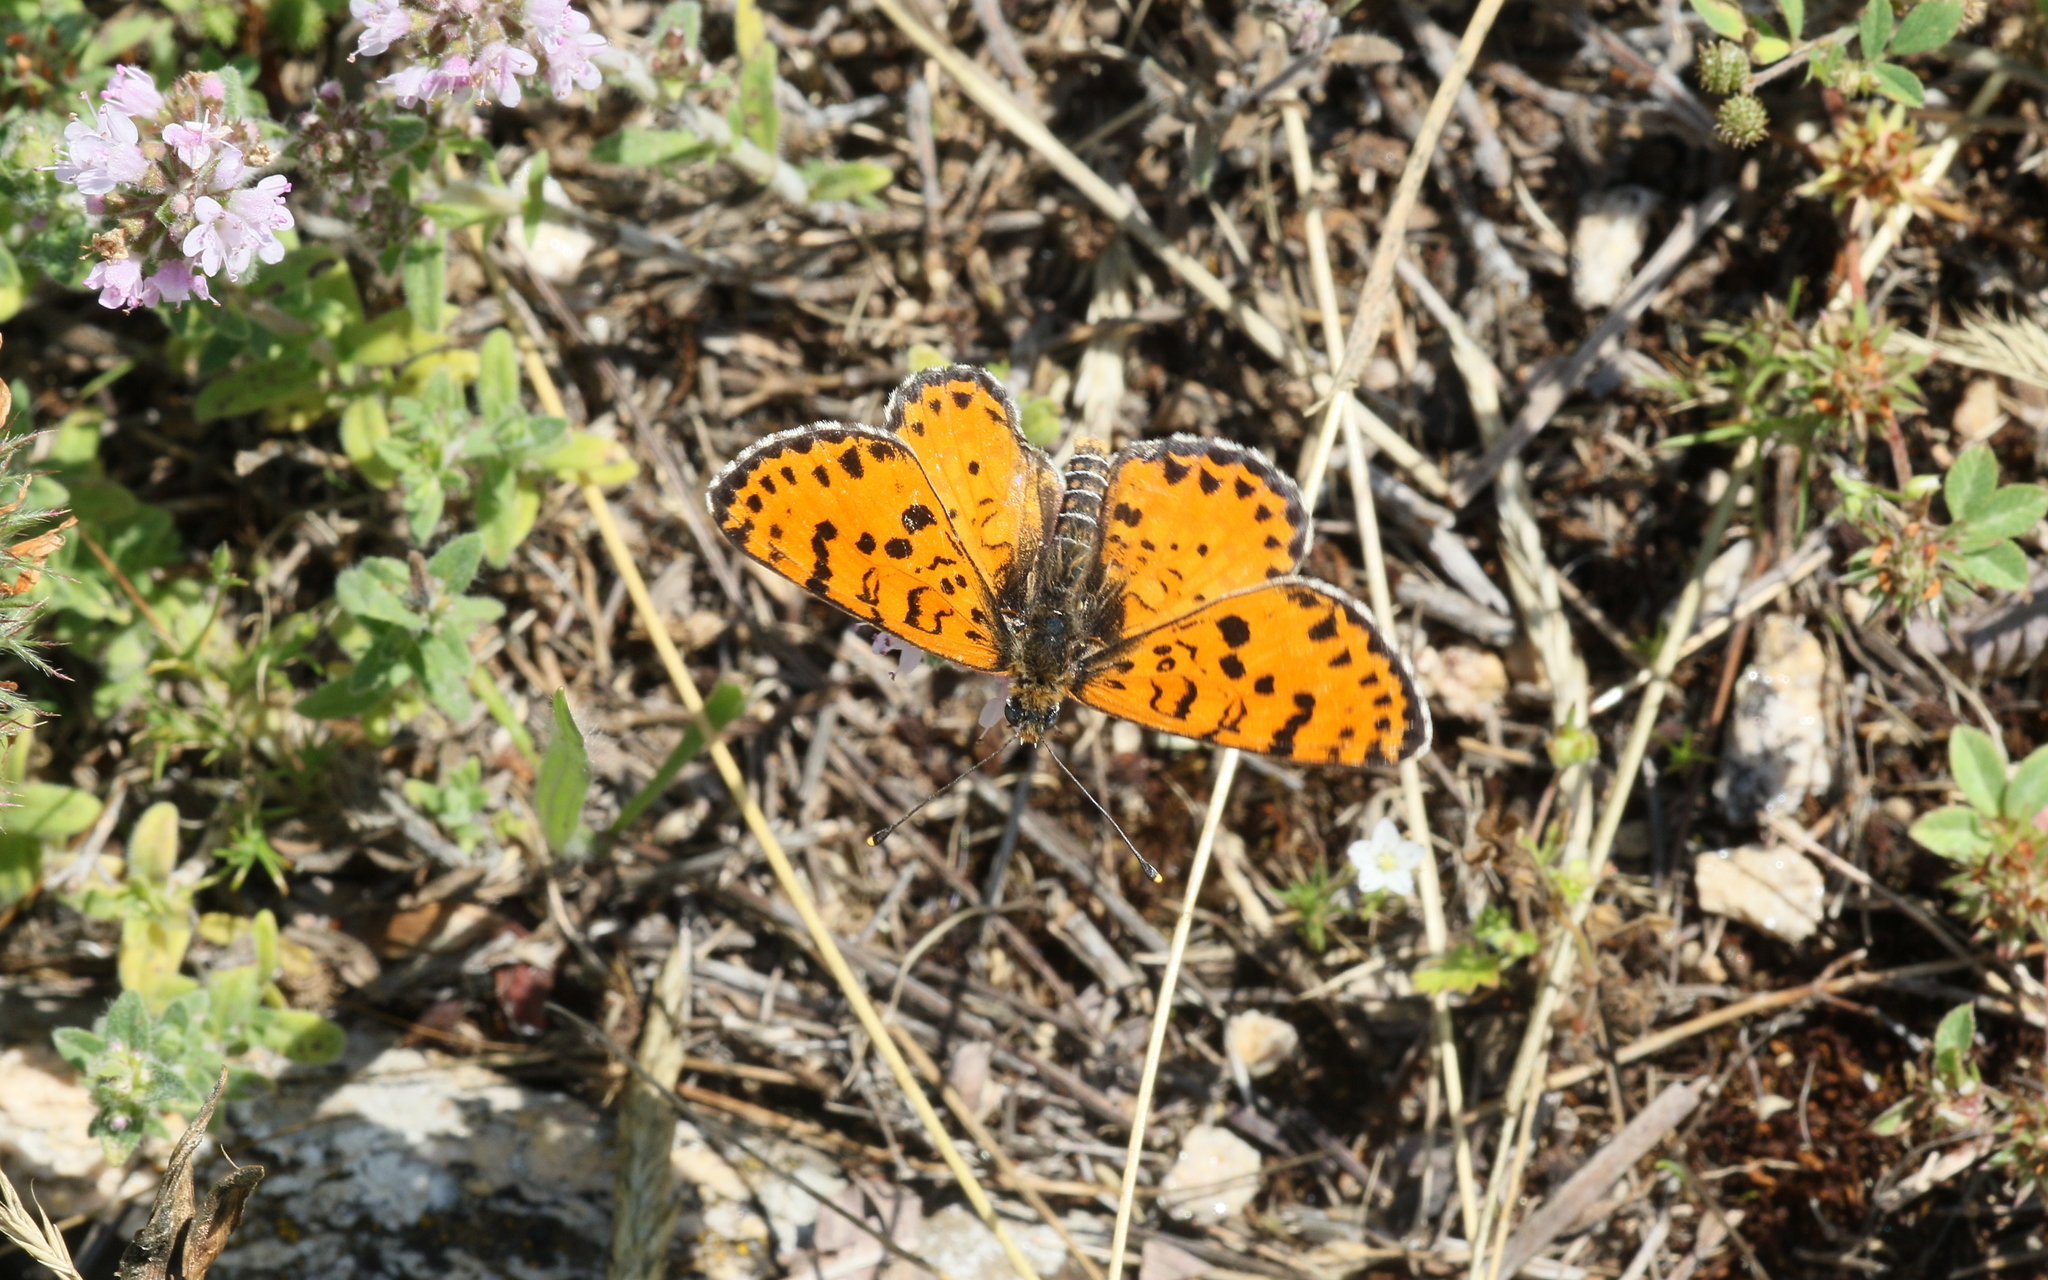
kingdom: Animalia
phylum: Arthropoda
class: Insecta
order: Lepidoptera
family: Nymphalidae
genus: Melitaea
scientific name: Melitaea didyma
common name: Spotted fritillary
